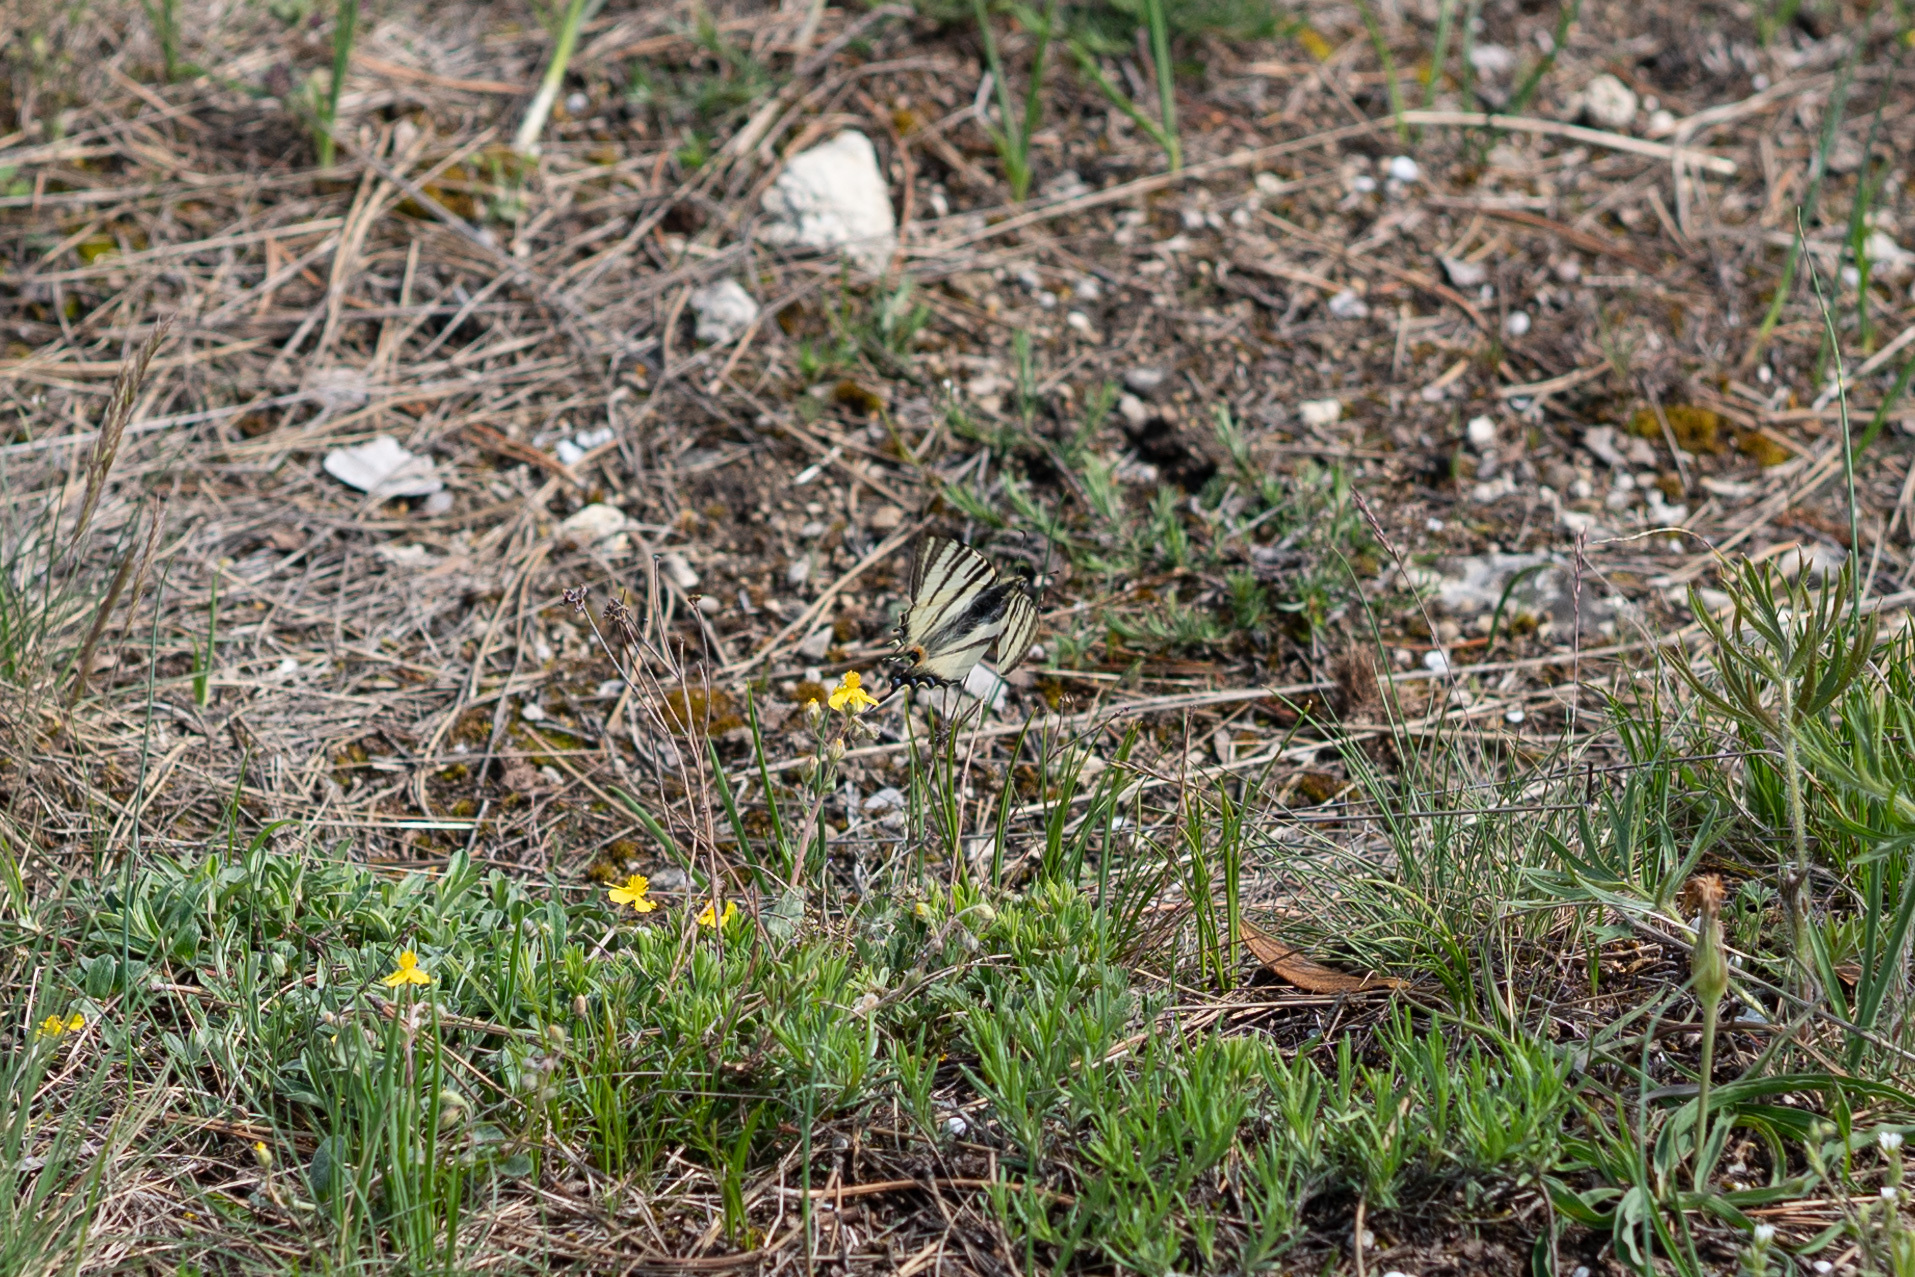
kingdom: Animalia
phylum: Arthropoda
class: Insecta
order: Lepidoptera
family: Papilionidae
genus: Iphiclides
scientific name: Iphiclides podalirius
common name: Scarce swallowtail
